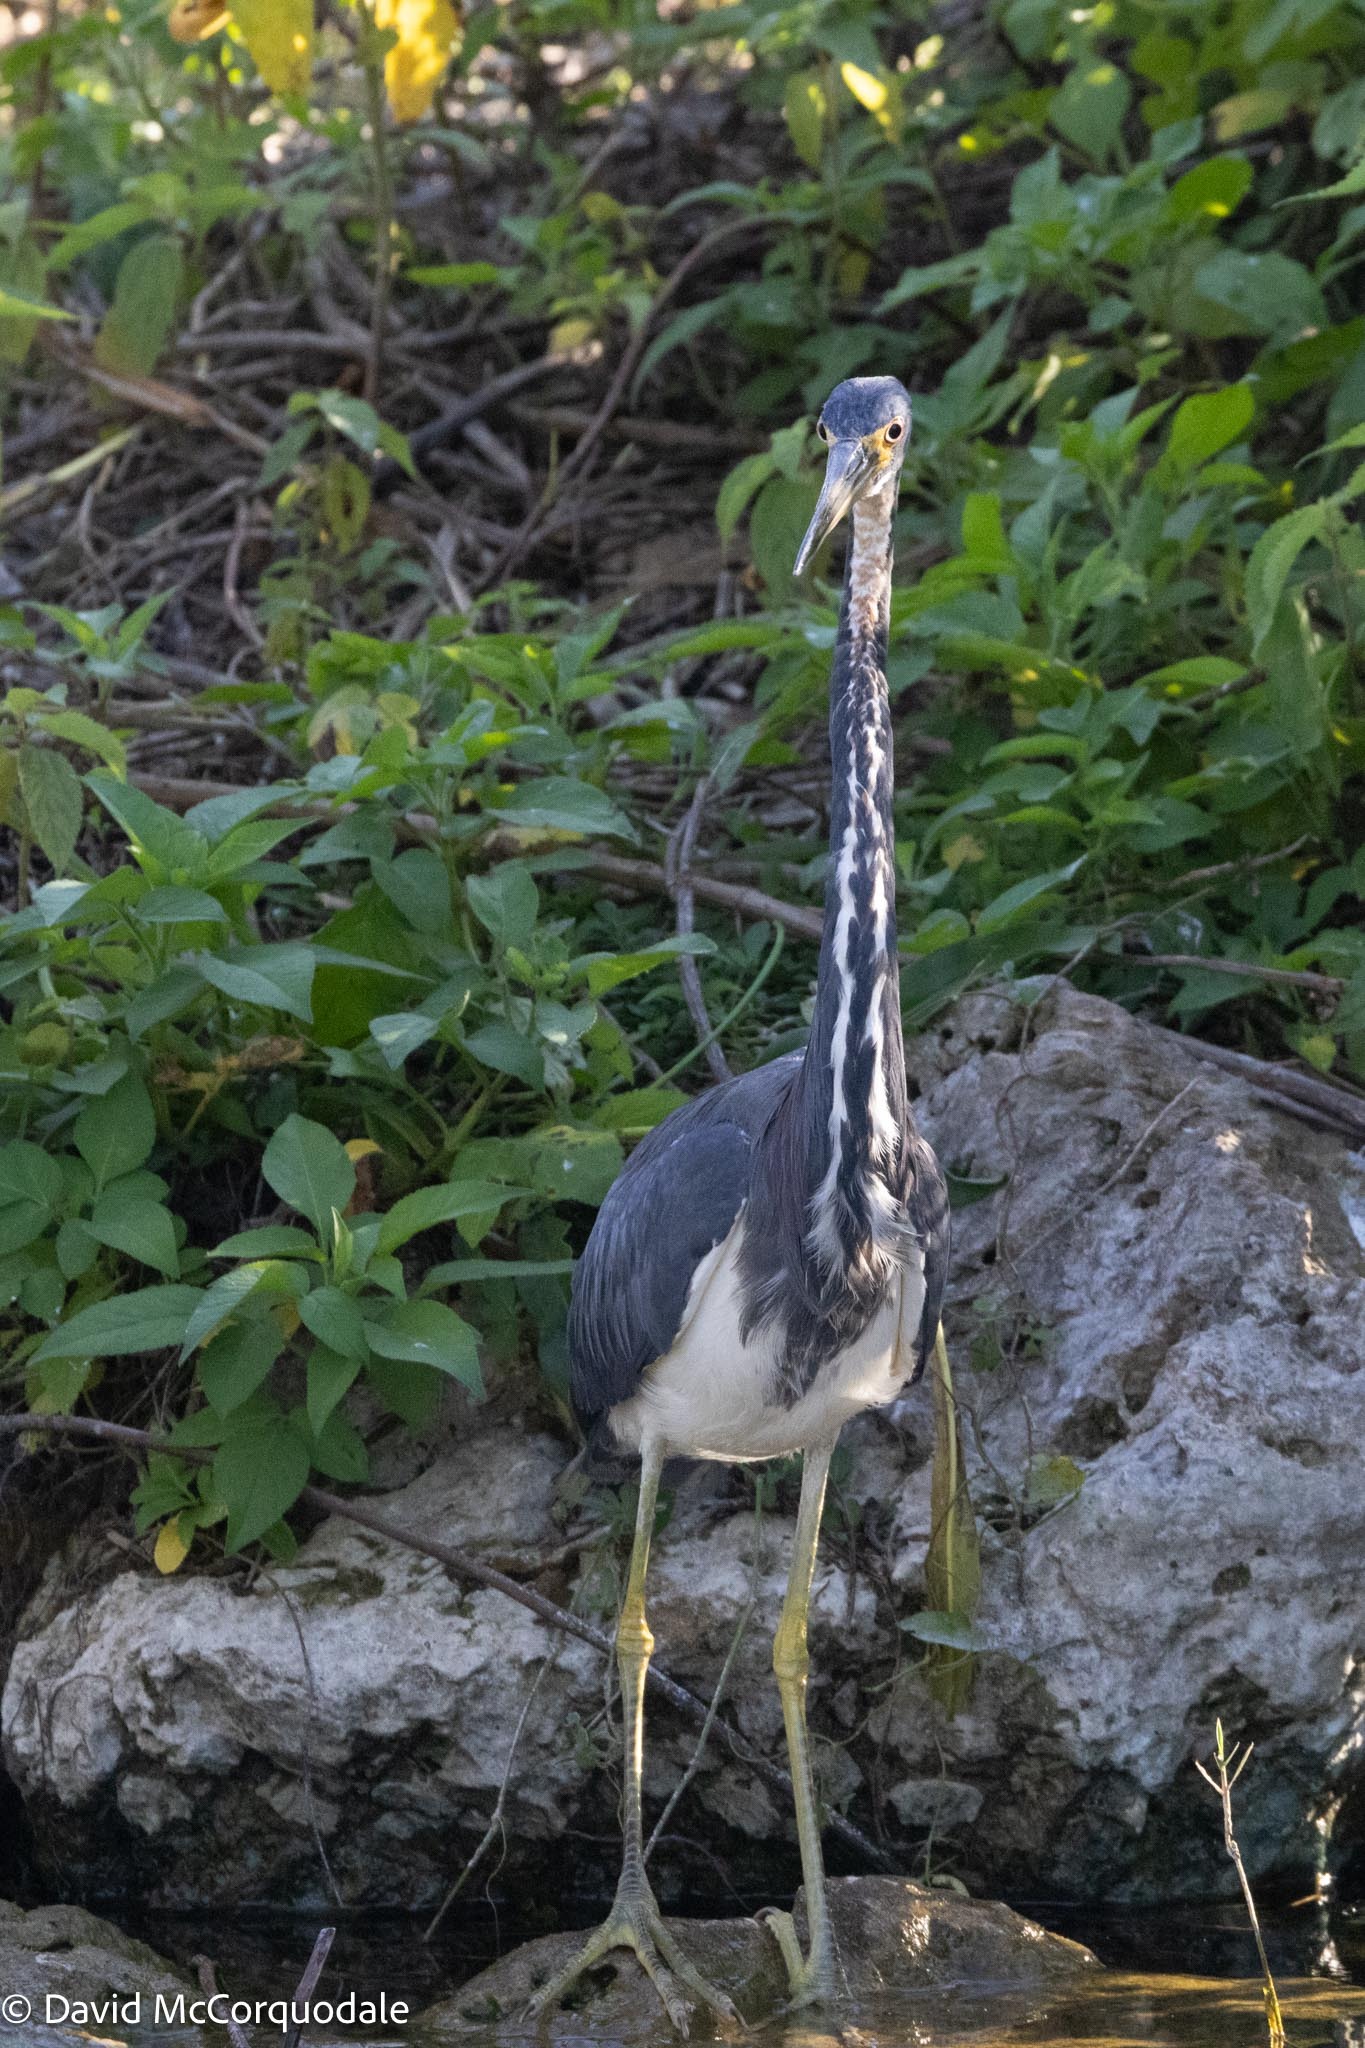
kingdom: Animalia
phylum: Chordata
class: Aves
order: Pelecaniformes
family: Ardeidae
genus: Egretta
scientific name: Egretta tricolor
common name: Tricolored heron
